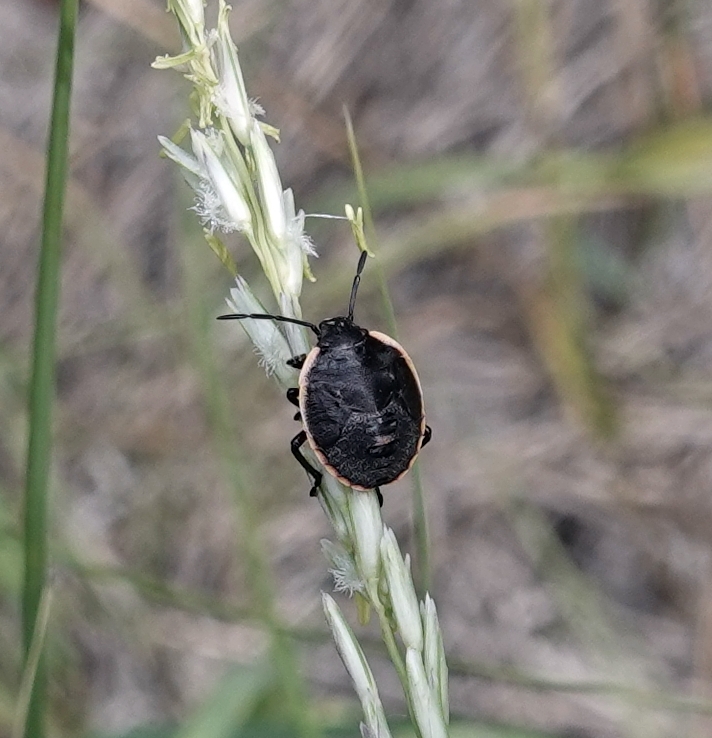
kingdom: Animalia
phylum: Arthropoda
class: Insecta
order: Hemiptera
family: Pentatomidae
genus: Chlorochroa
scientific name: Chlorochroa ligata
